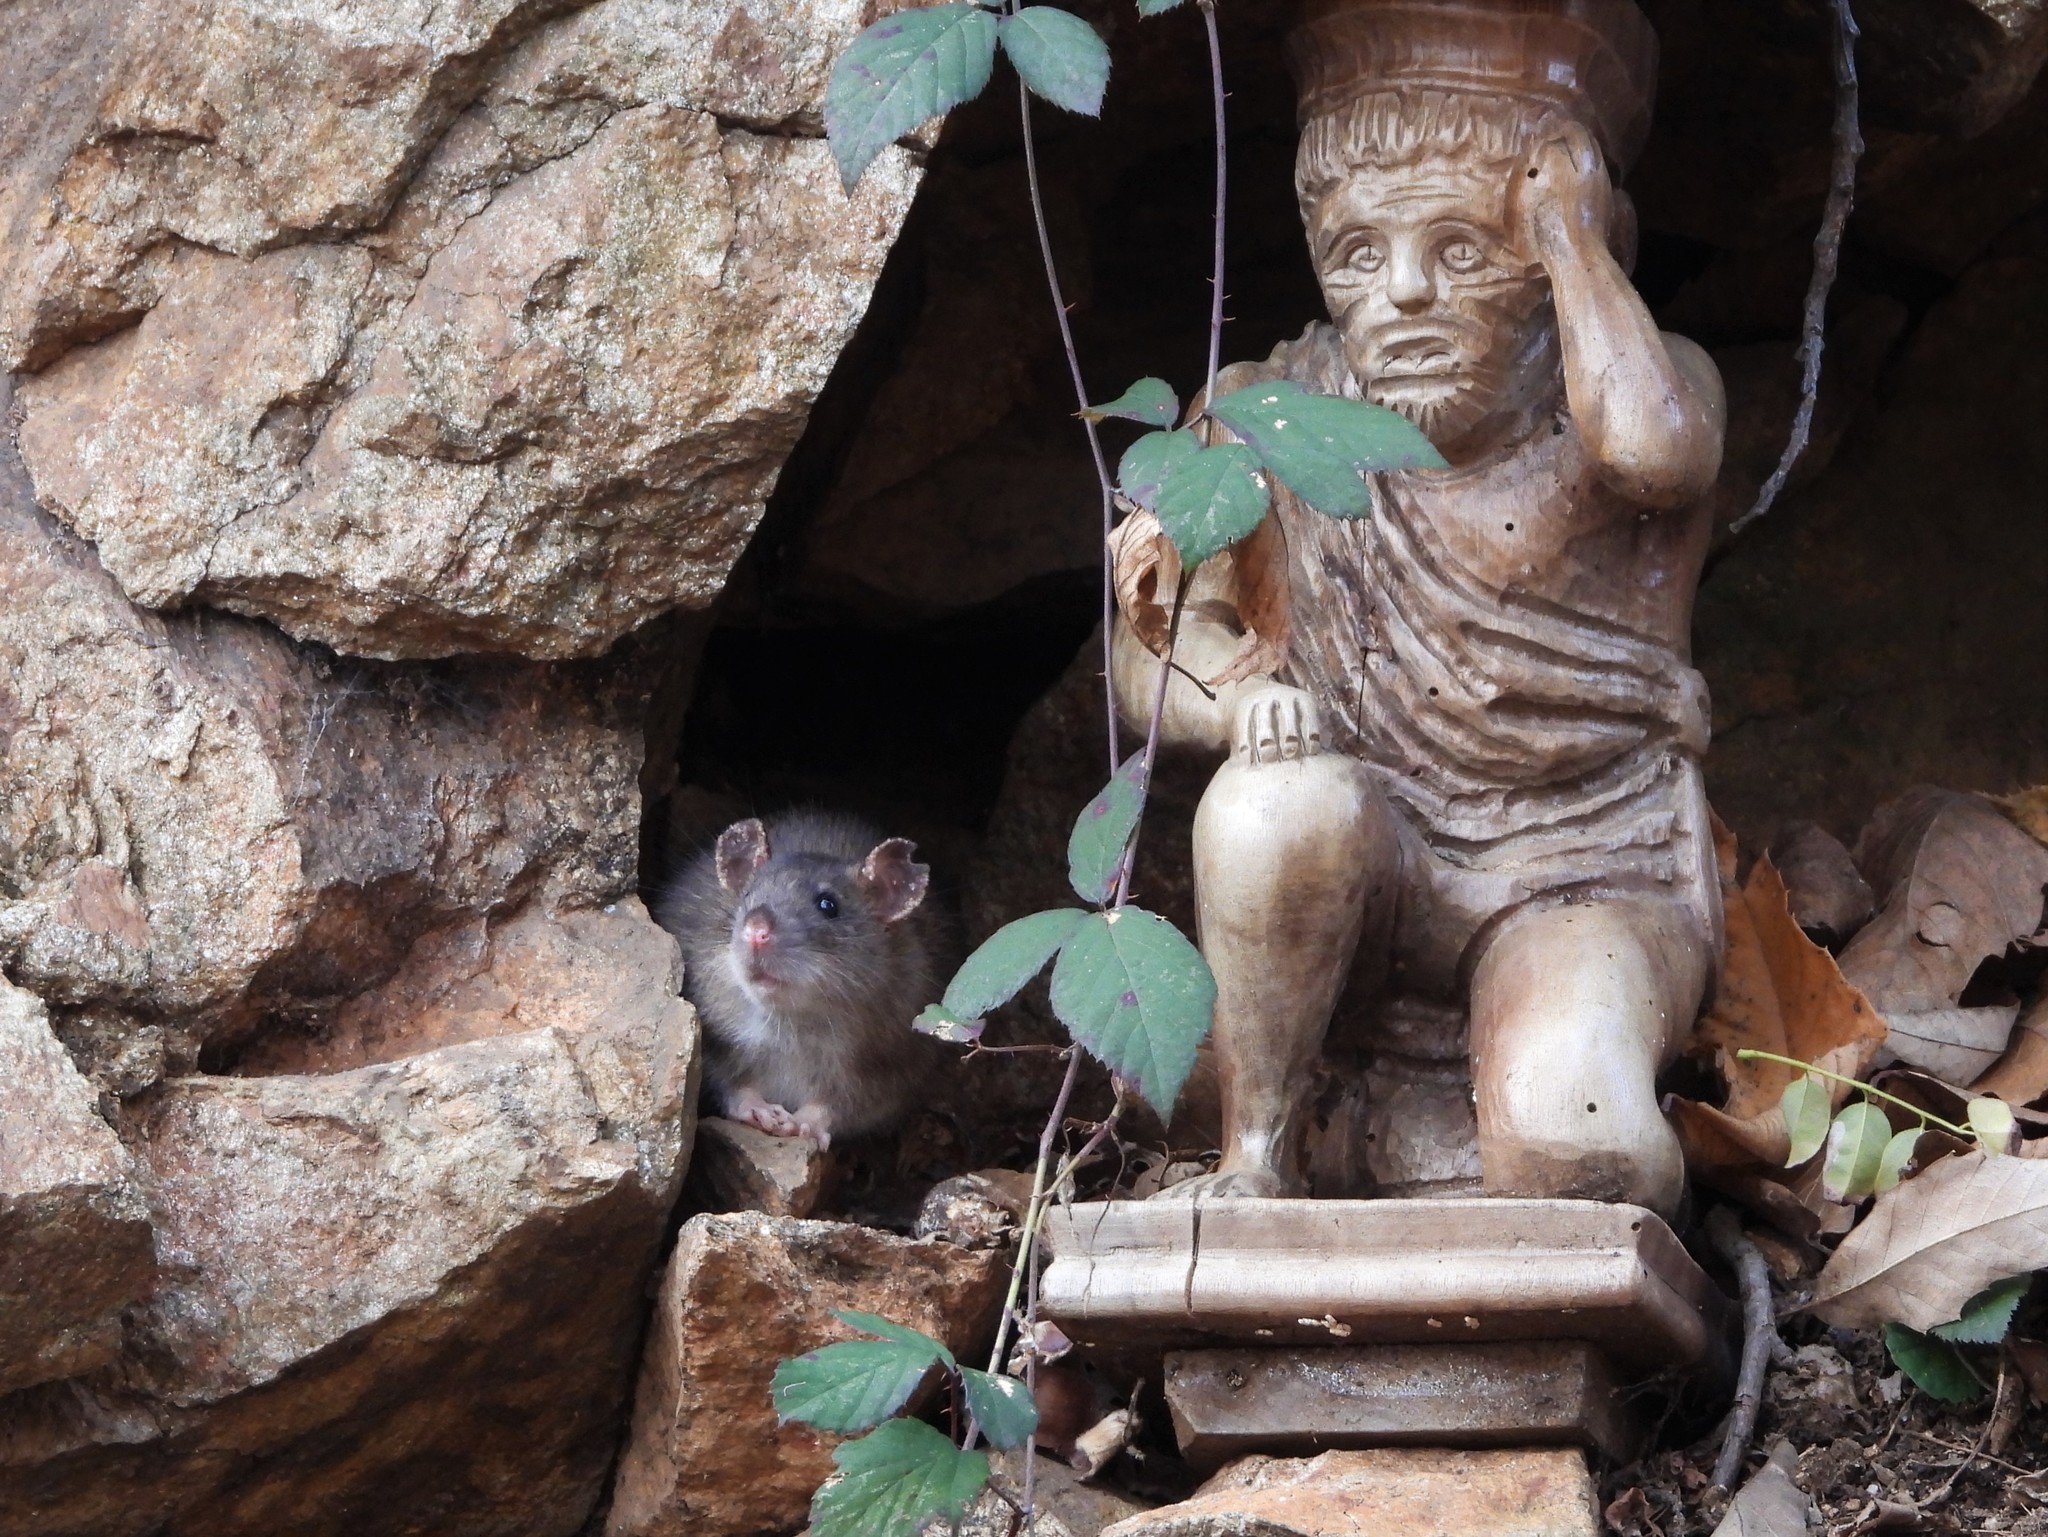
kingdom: Animalia
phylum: Chordata
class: Mammalia
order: Rodentia
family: Muridae
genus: Rattus
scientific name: Rattus norvegicus
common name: Brown rat
